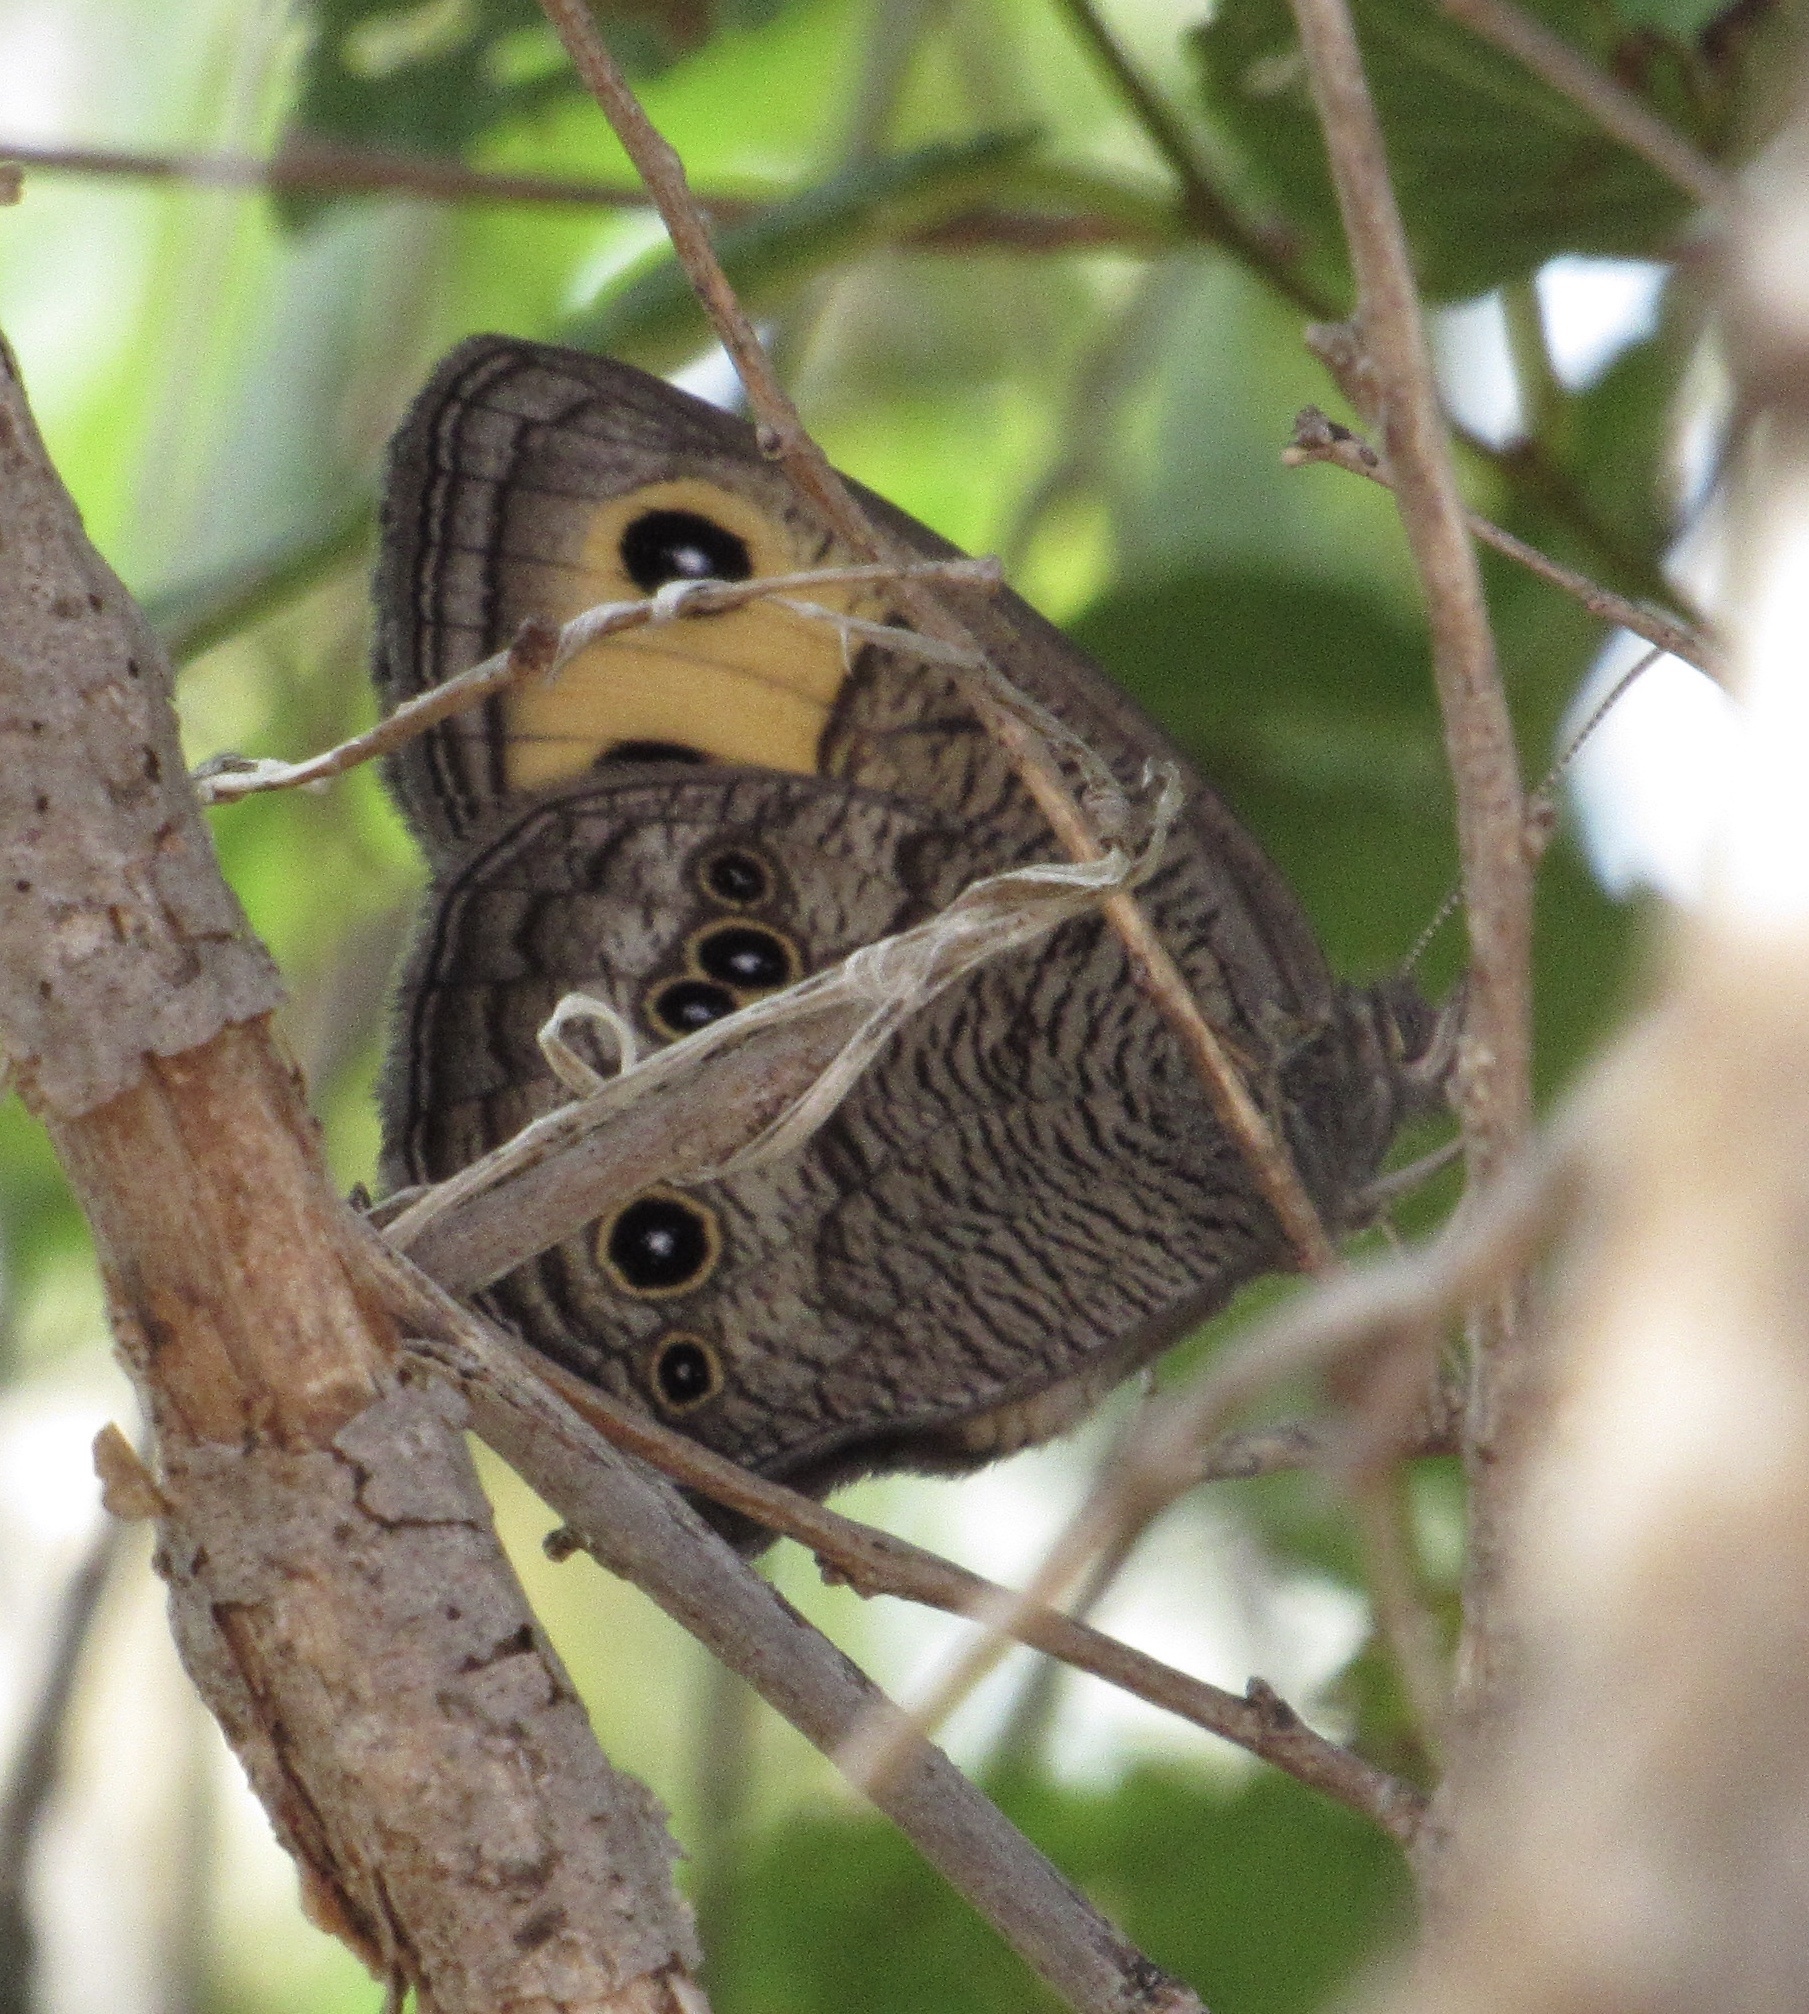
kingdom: Animalia
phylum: Arthropoda
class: Insecta
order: Lepidoptera
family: Nymphalidae
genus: Cercyonis
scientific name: Cercyonis pegala
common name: Common wood-nymph
